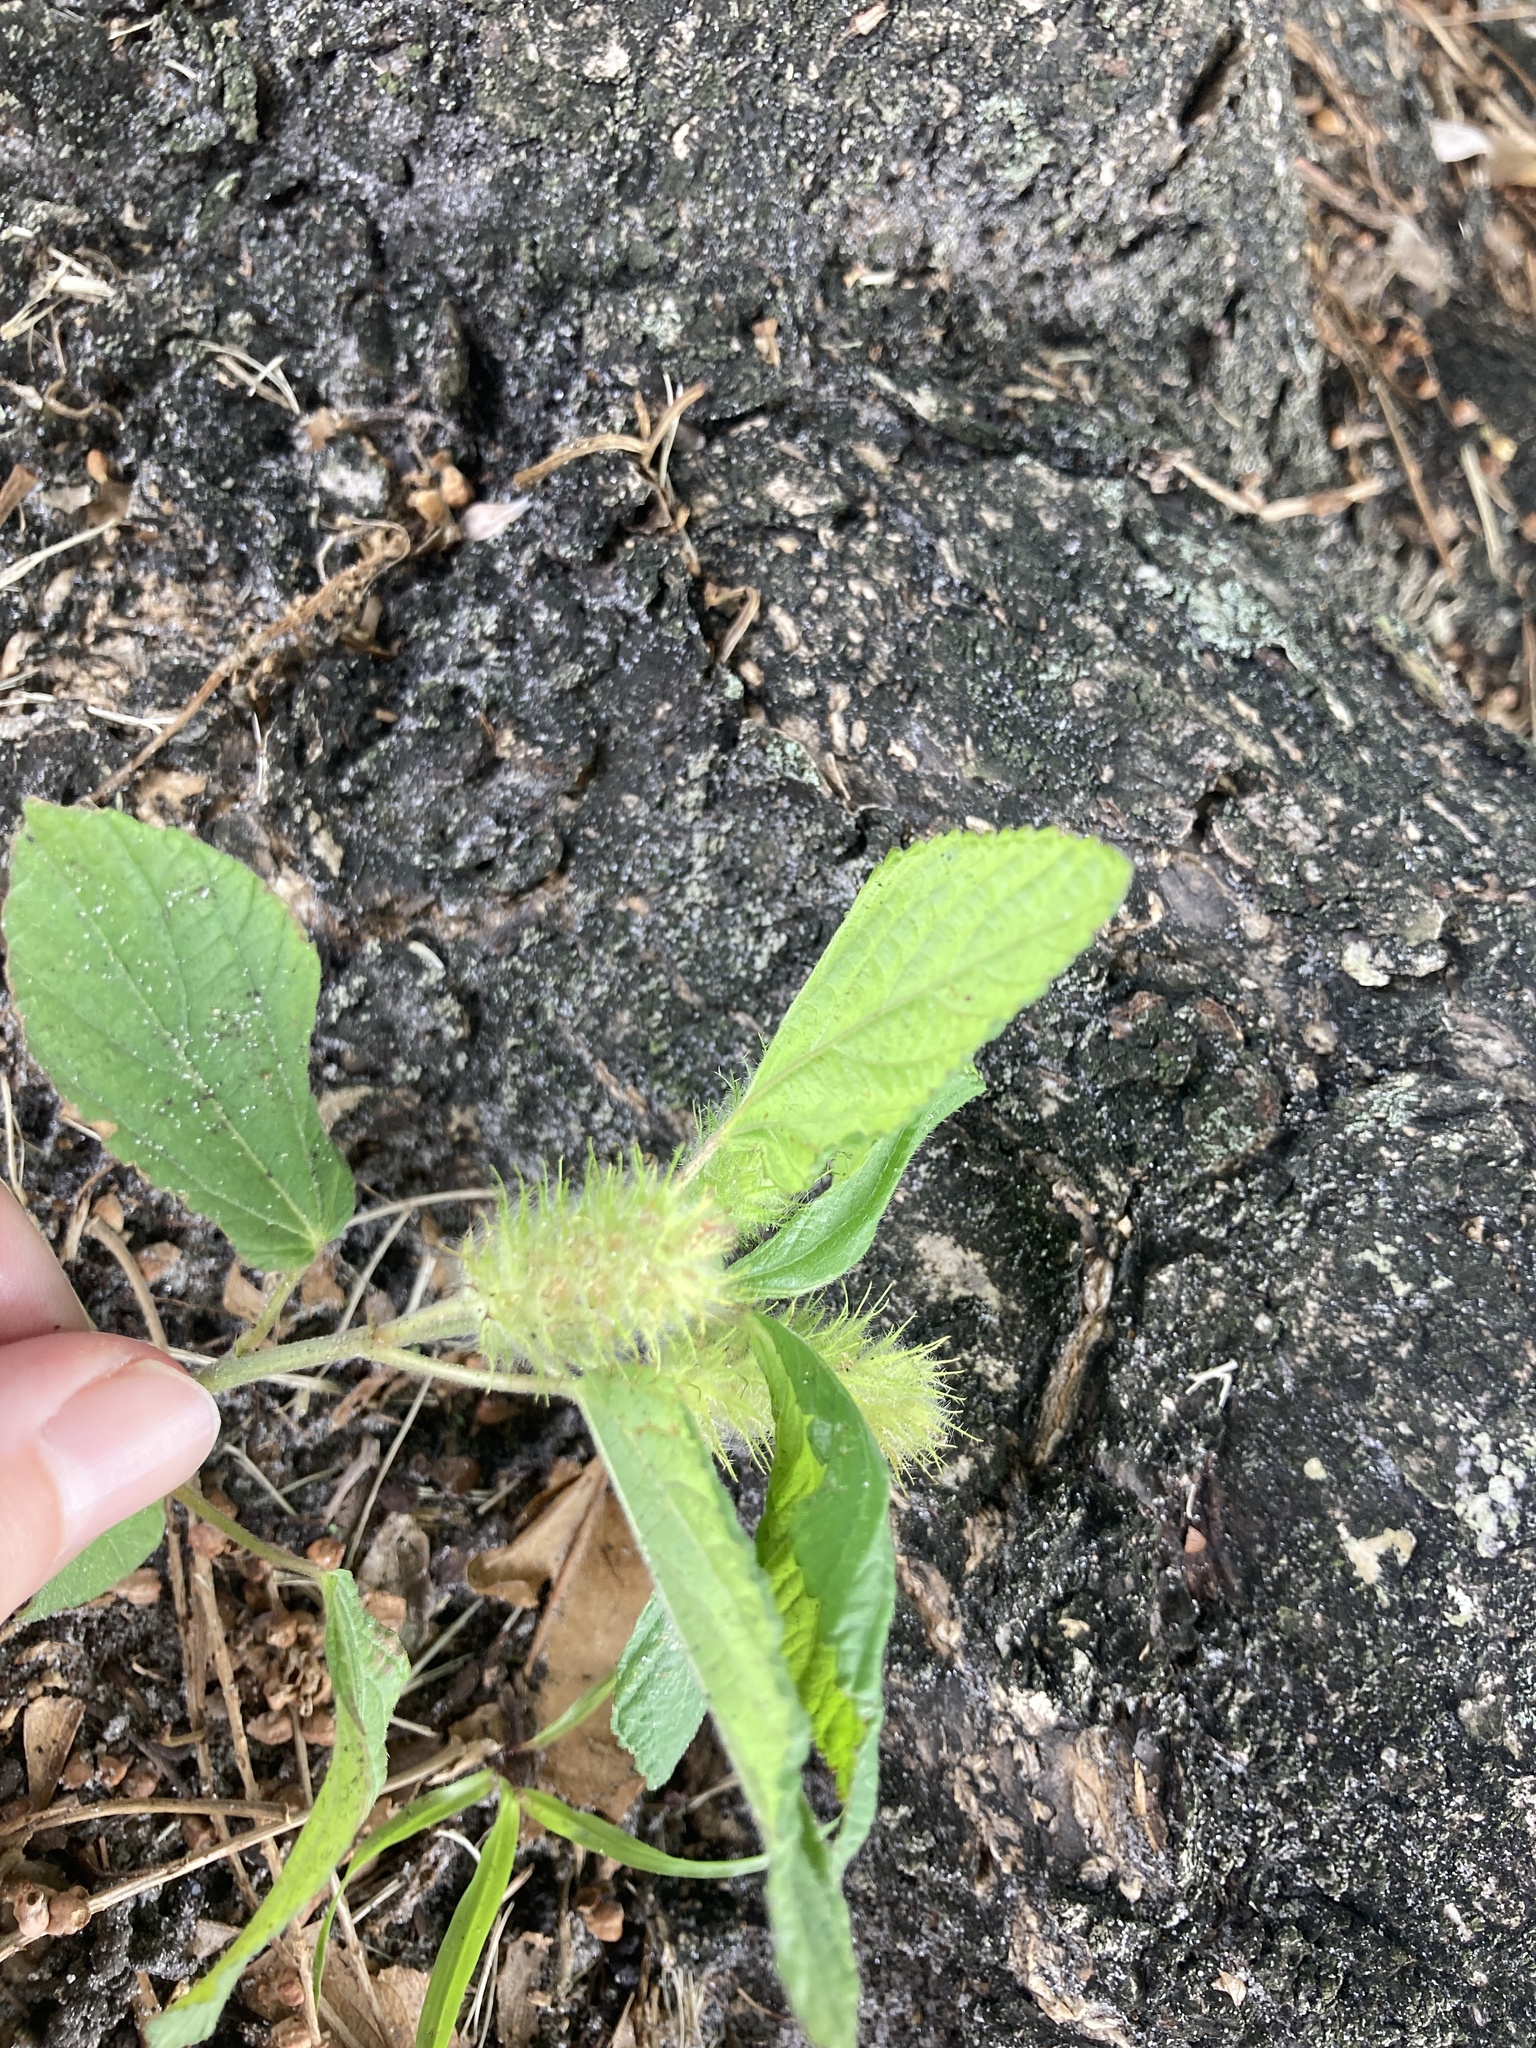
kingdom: Plantae
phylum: Tracheophyta
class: Magnoliopsida
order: Malpighiales
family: Euphorbiaceae
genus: Acalypha
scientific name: Acalypha arvensis
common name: Field copperleaf
